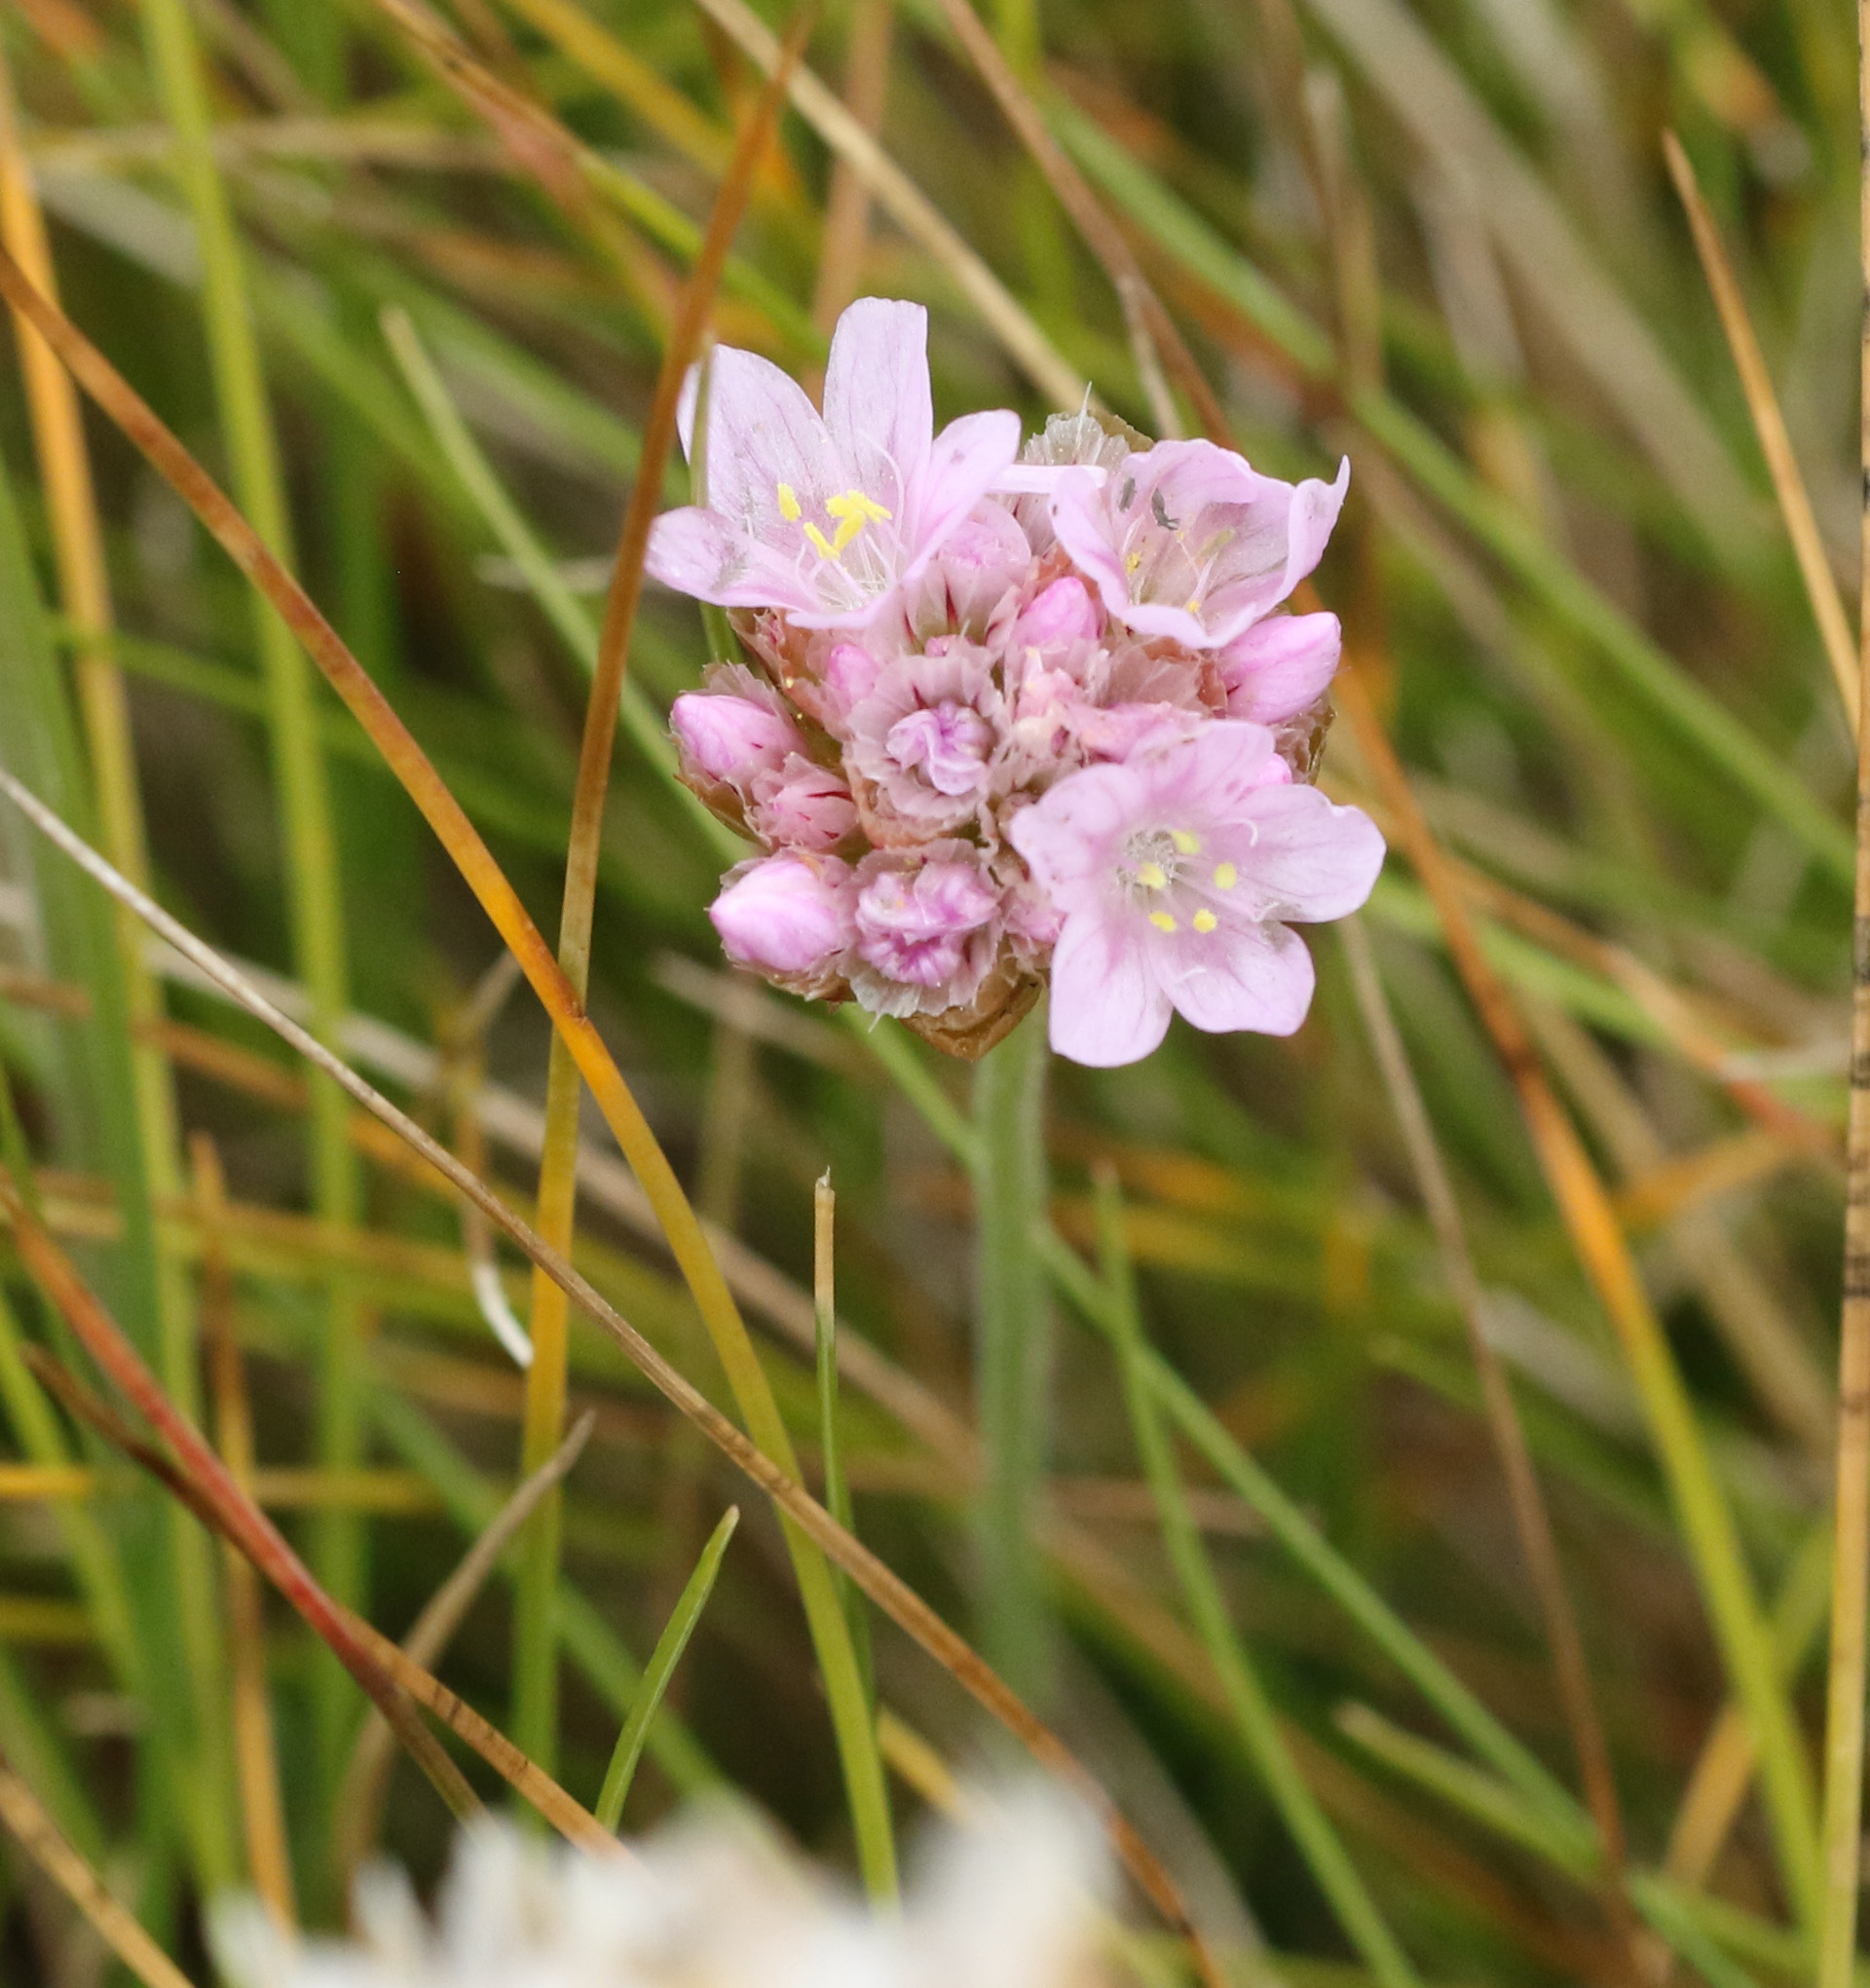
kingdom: Plantae
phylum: Tracheophyta
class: Magnoliopsida
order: Caryophyllales
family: Plumbaginaceae
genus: Armeria
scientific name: Armeria maritima
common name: Thrift
